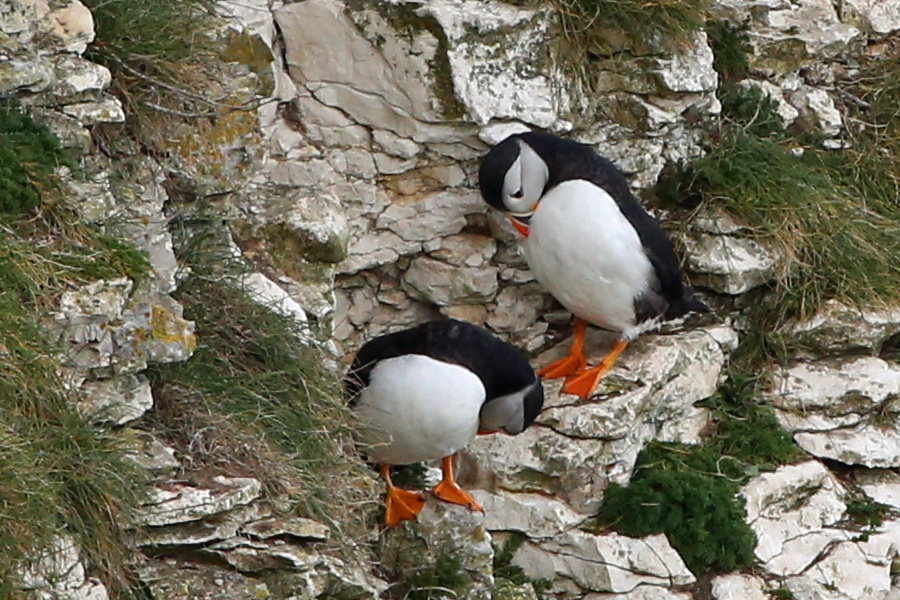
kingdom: Animalia
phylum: Chordata
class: Aves
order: Charadriiformes
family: Alcidae
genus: Fratercula
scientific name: Fratercula arctica
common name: Atlantic puffin
